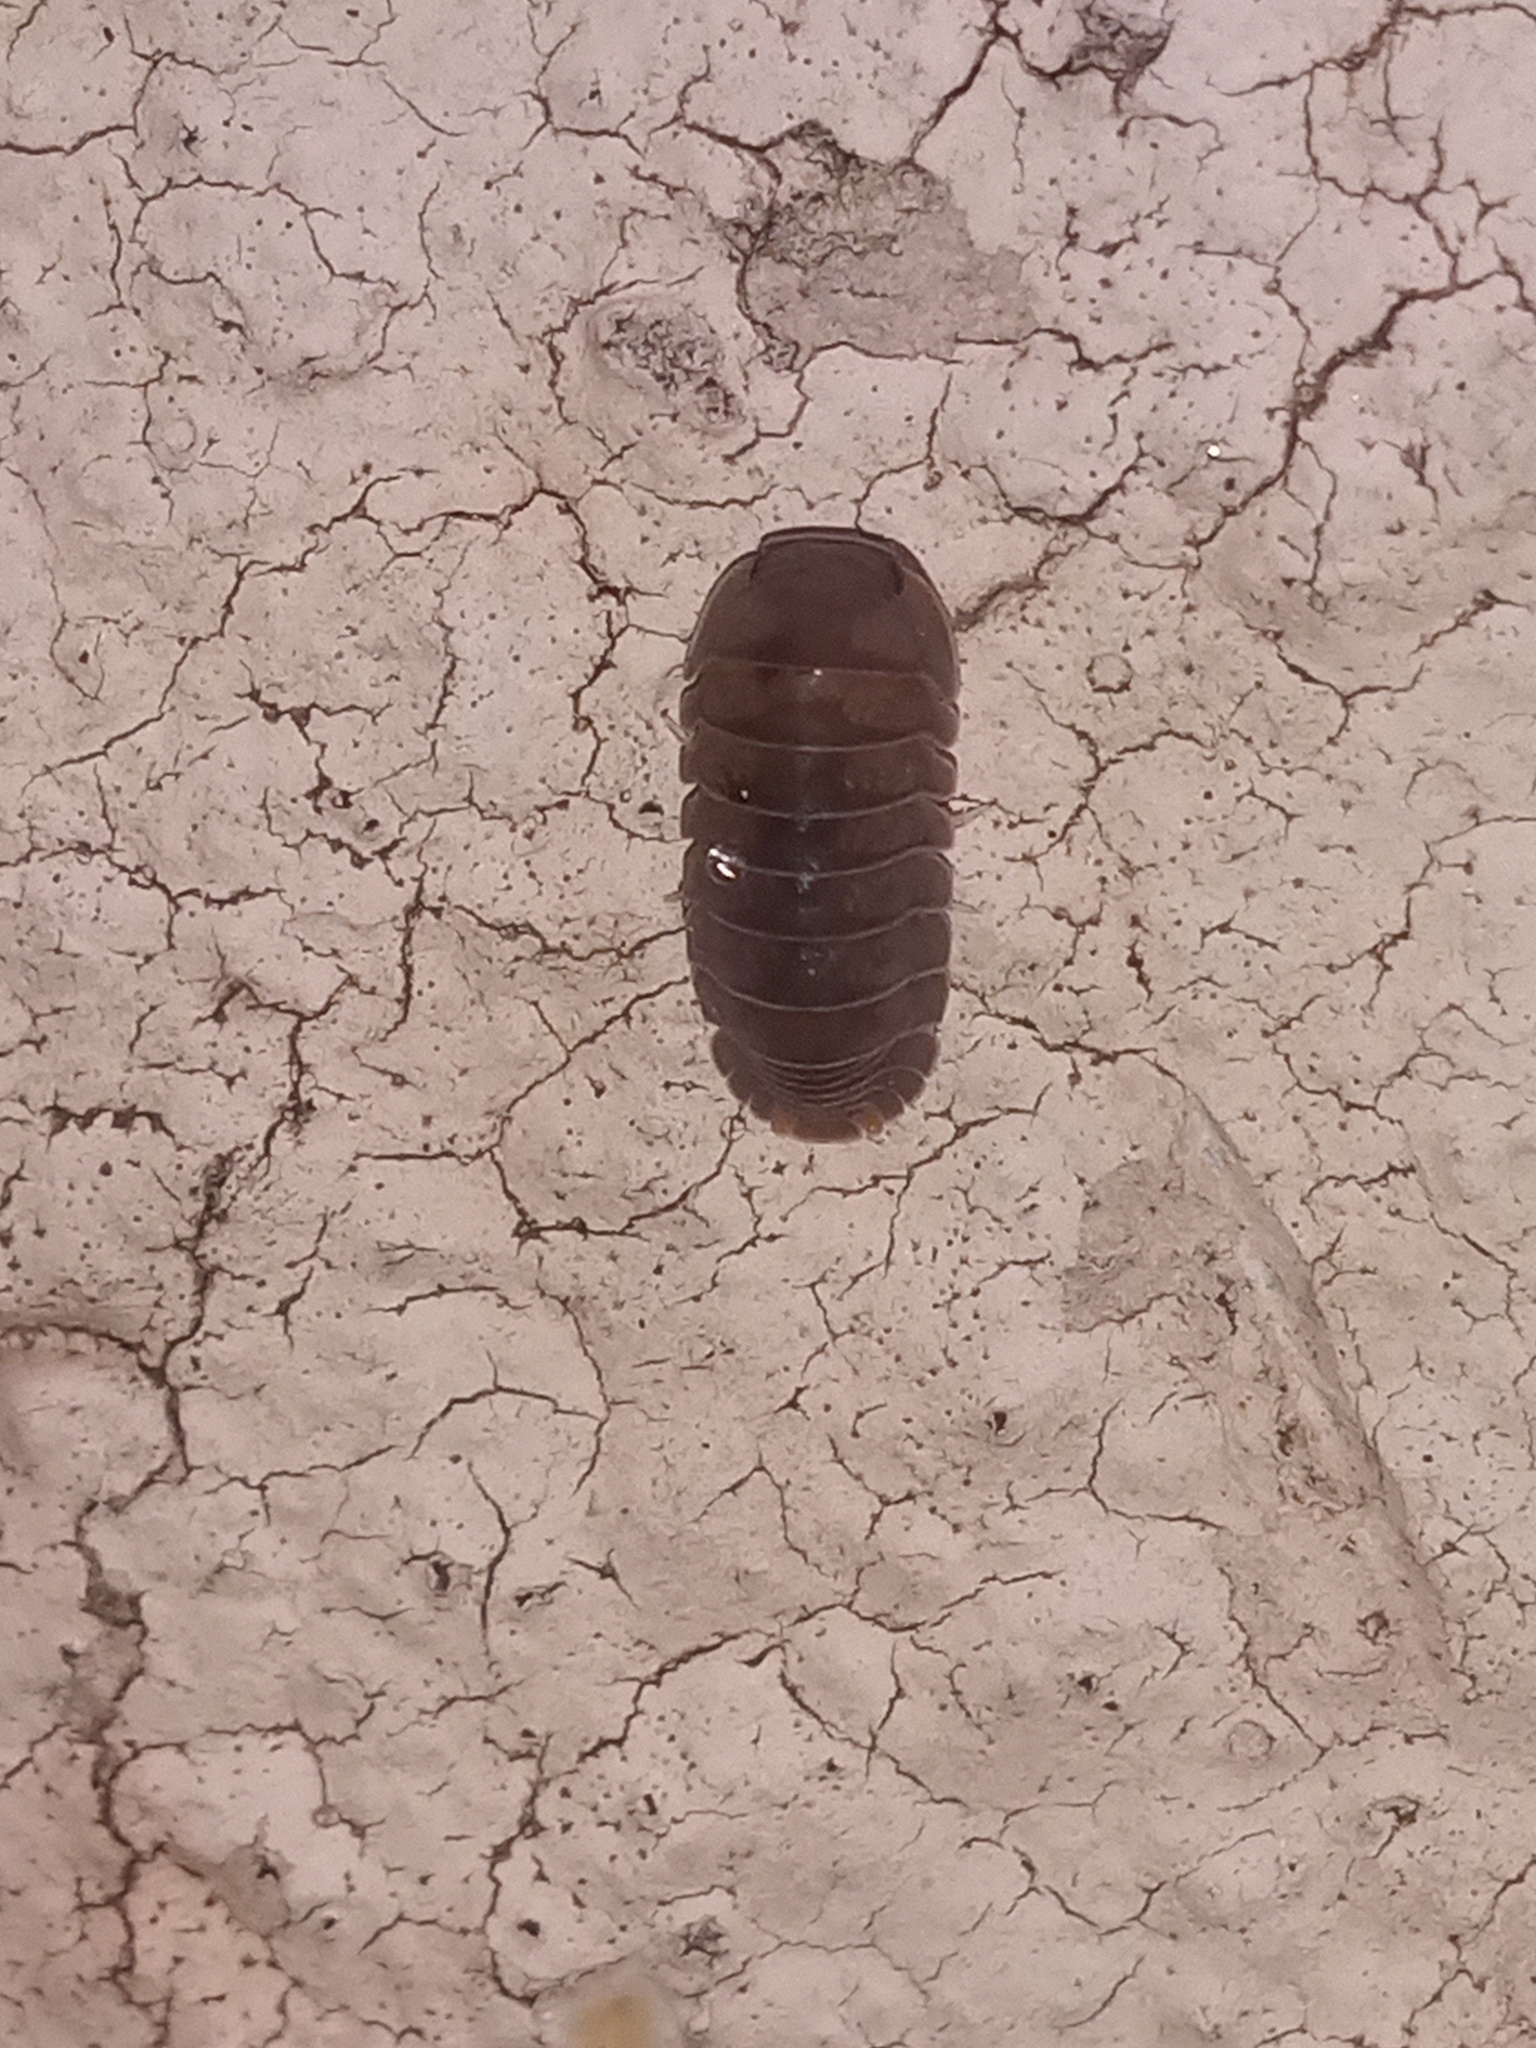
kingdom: Animalia
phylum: Arthropoda
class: Malacostraca
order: Isopoda
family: Armadillidae
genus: Cubaris
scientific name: Cubaris murina
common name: Pillbug
